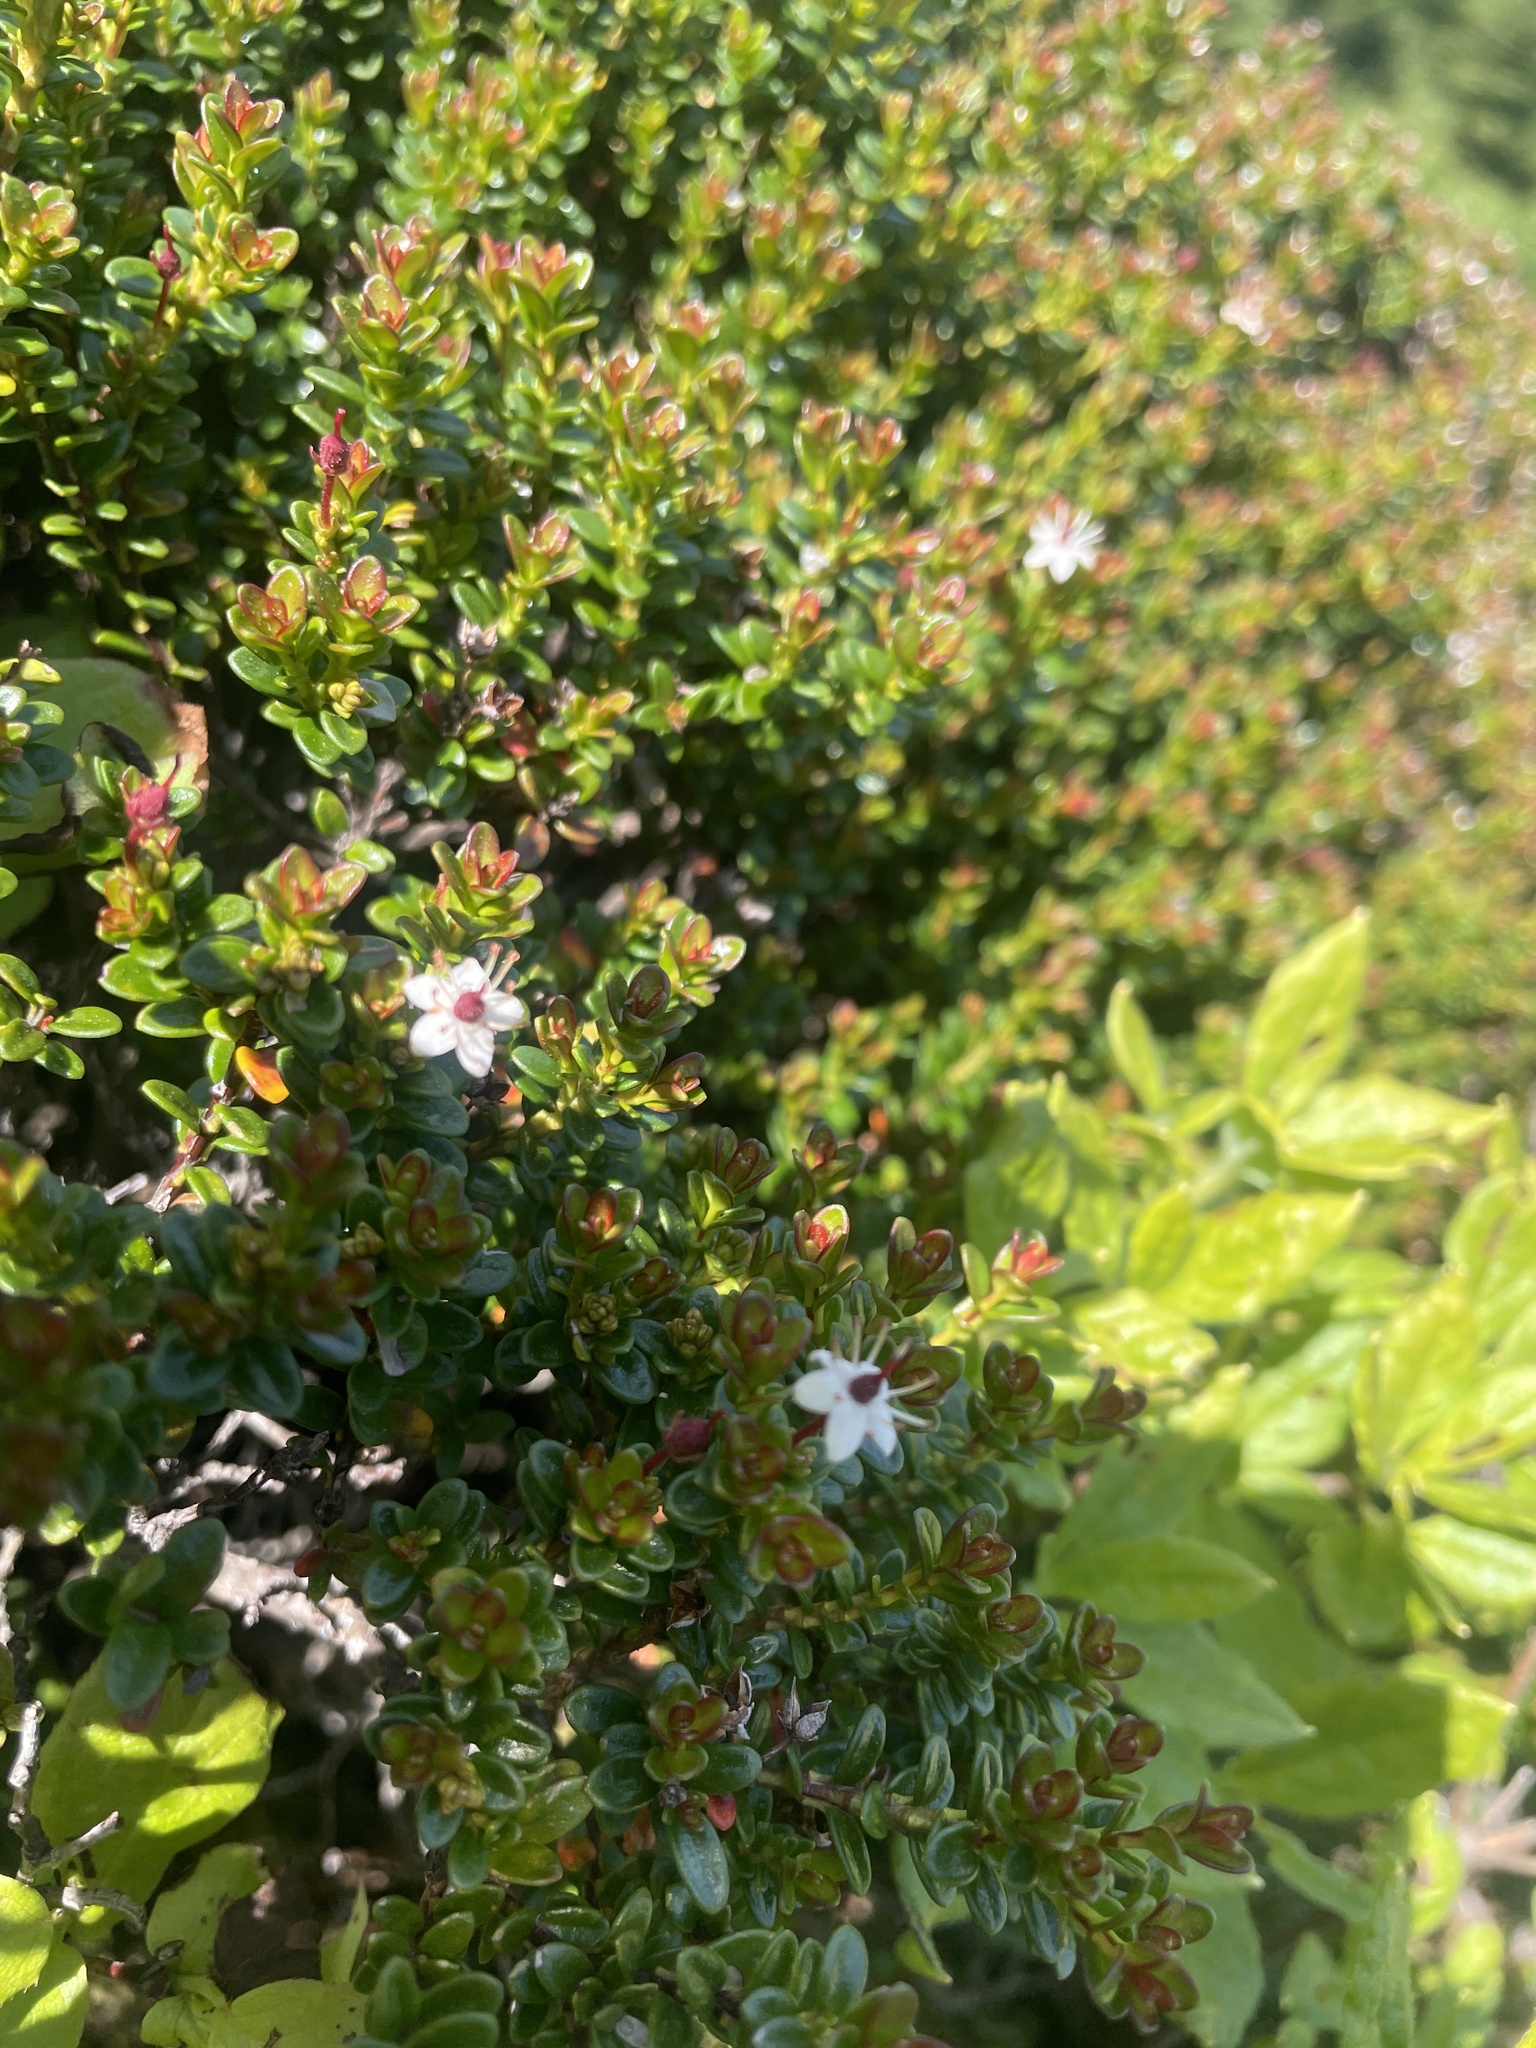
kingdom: Plantae
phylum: Tracheophyta
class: Magnoliopsida
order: Ericales
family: Ericaceae
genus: Kalmia
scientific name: Kalmia buxifolia
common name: Sandmyrtle
